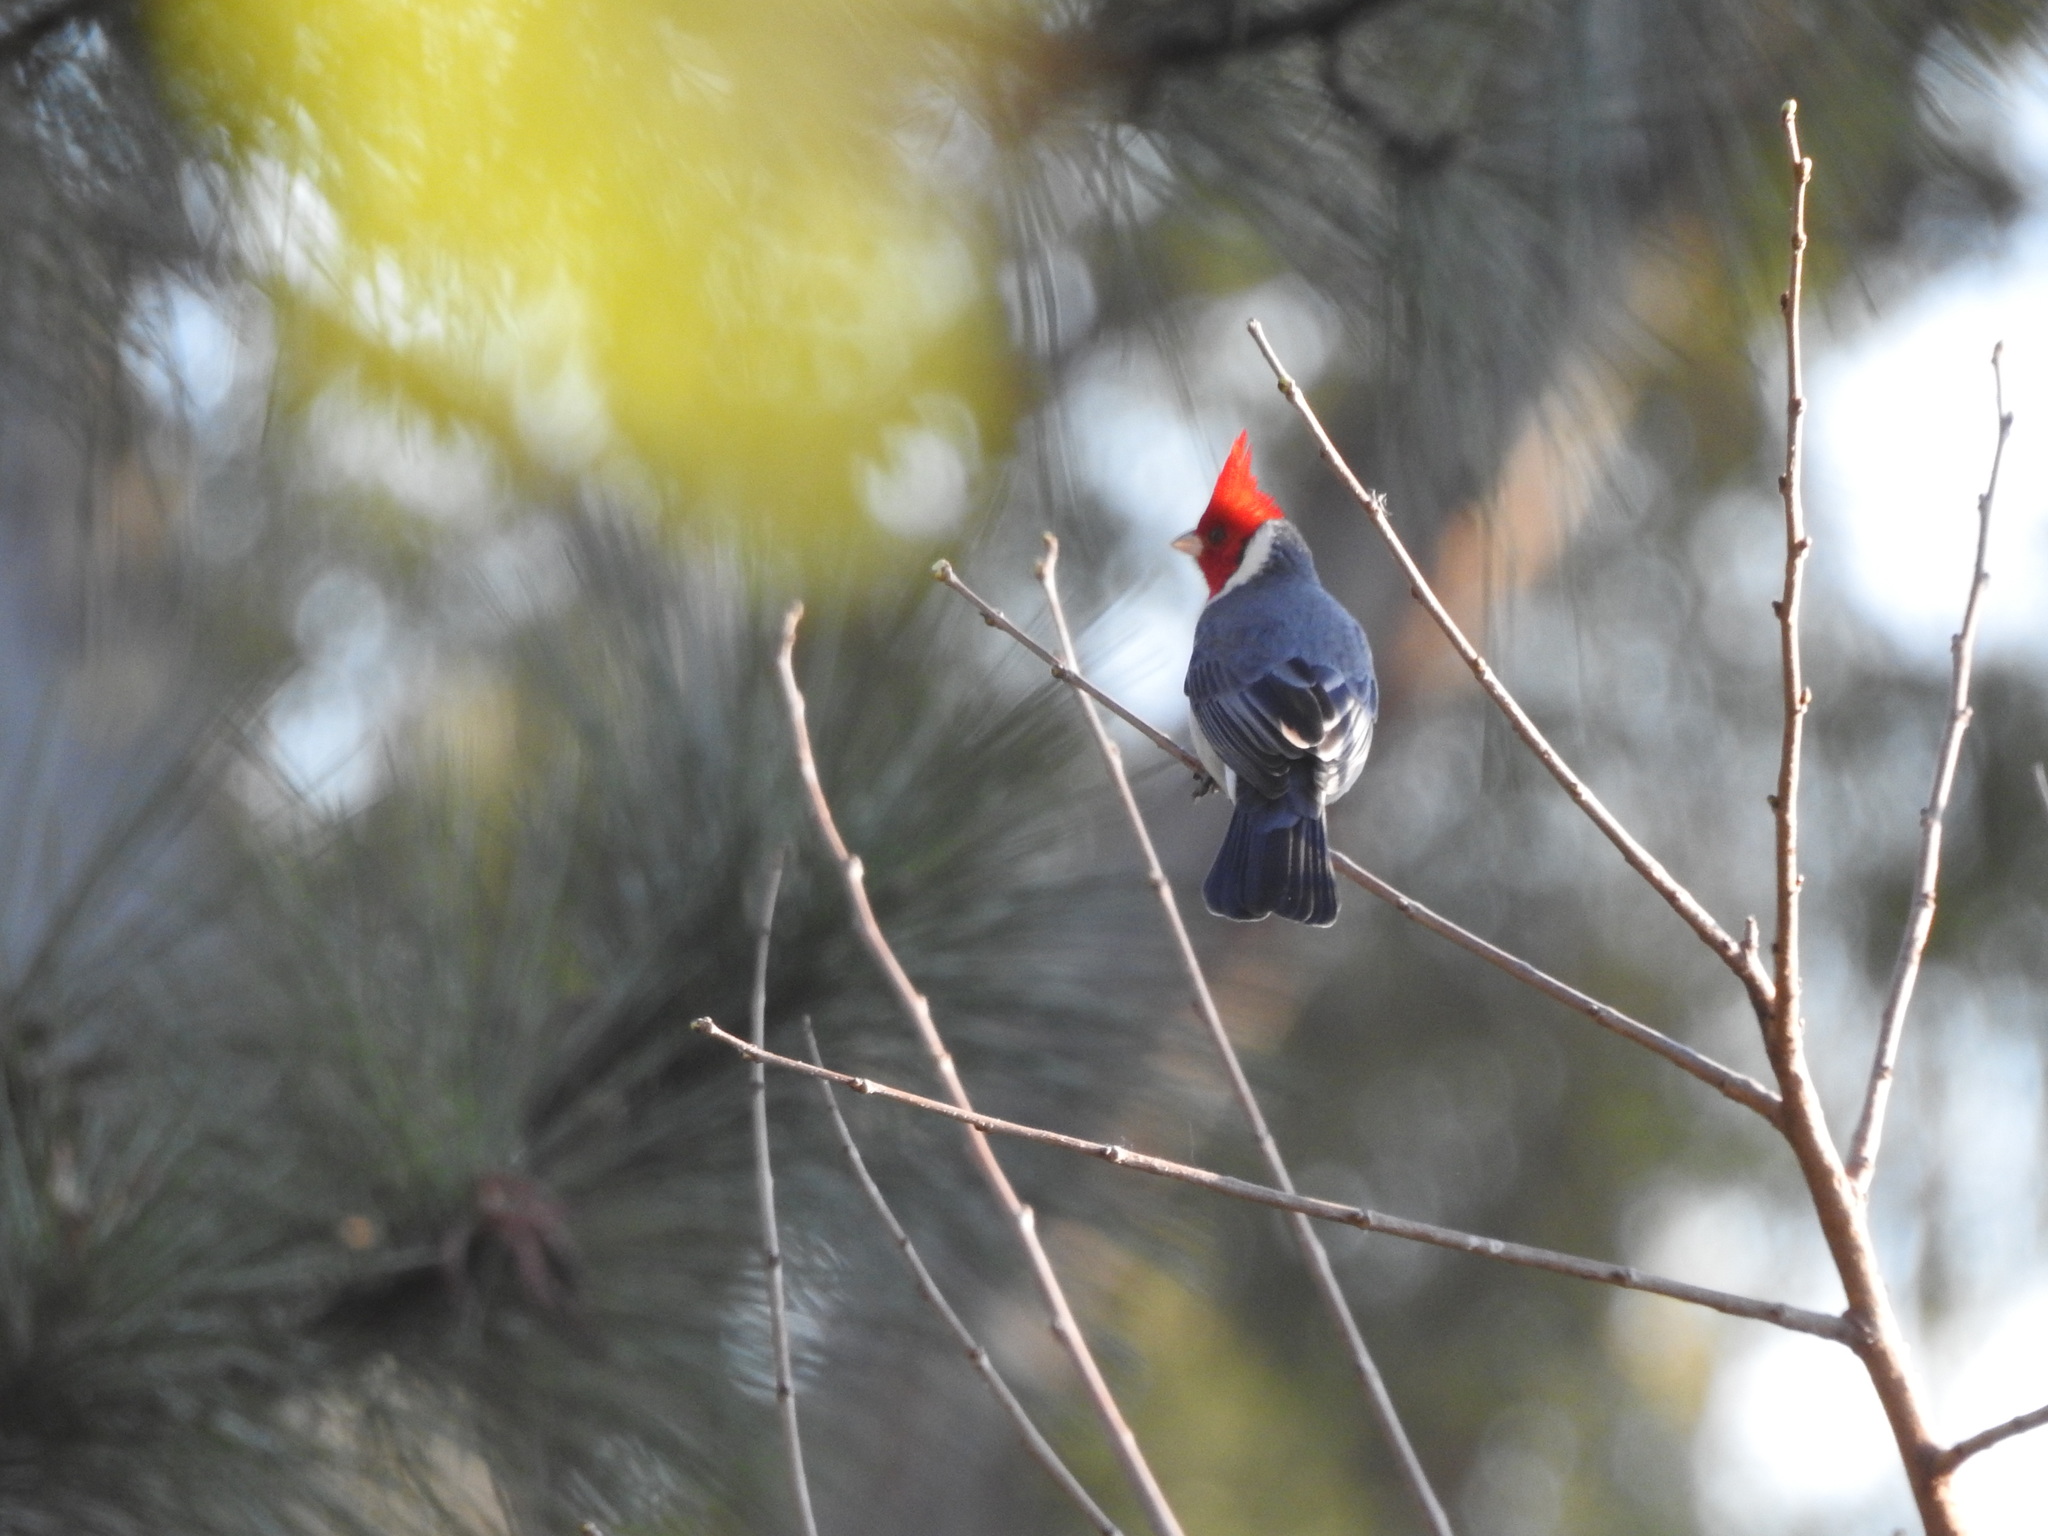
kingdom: Animalia
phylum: Chordata
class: Aves
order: Passeriformes
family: Thraupidae
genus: Paroaria
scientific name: Paroaria coronata
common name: Red-crested cardinal
